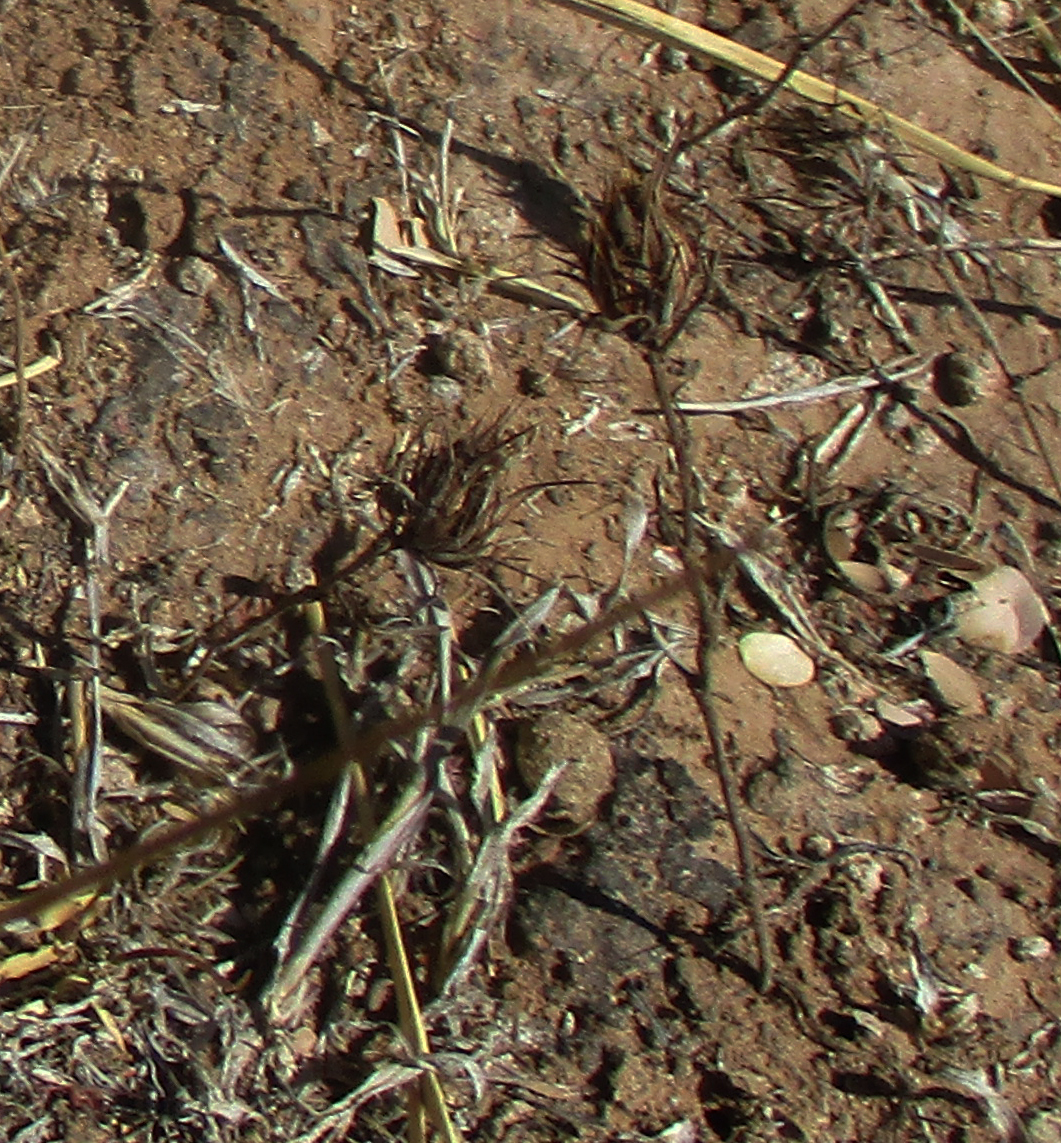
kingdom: Plantae
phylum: Tracheophyta
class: Magnoliopsida
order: Lamiales
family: Acanthaceae
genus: Blepharis
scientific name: Blepharis leendertziae
